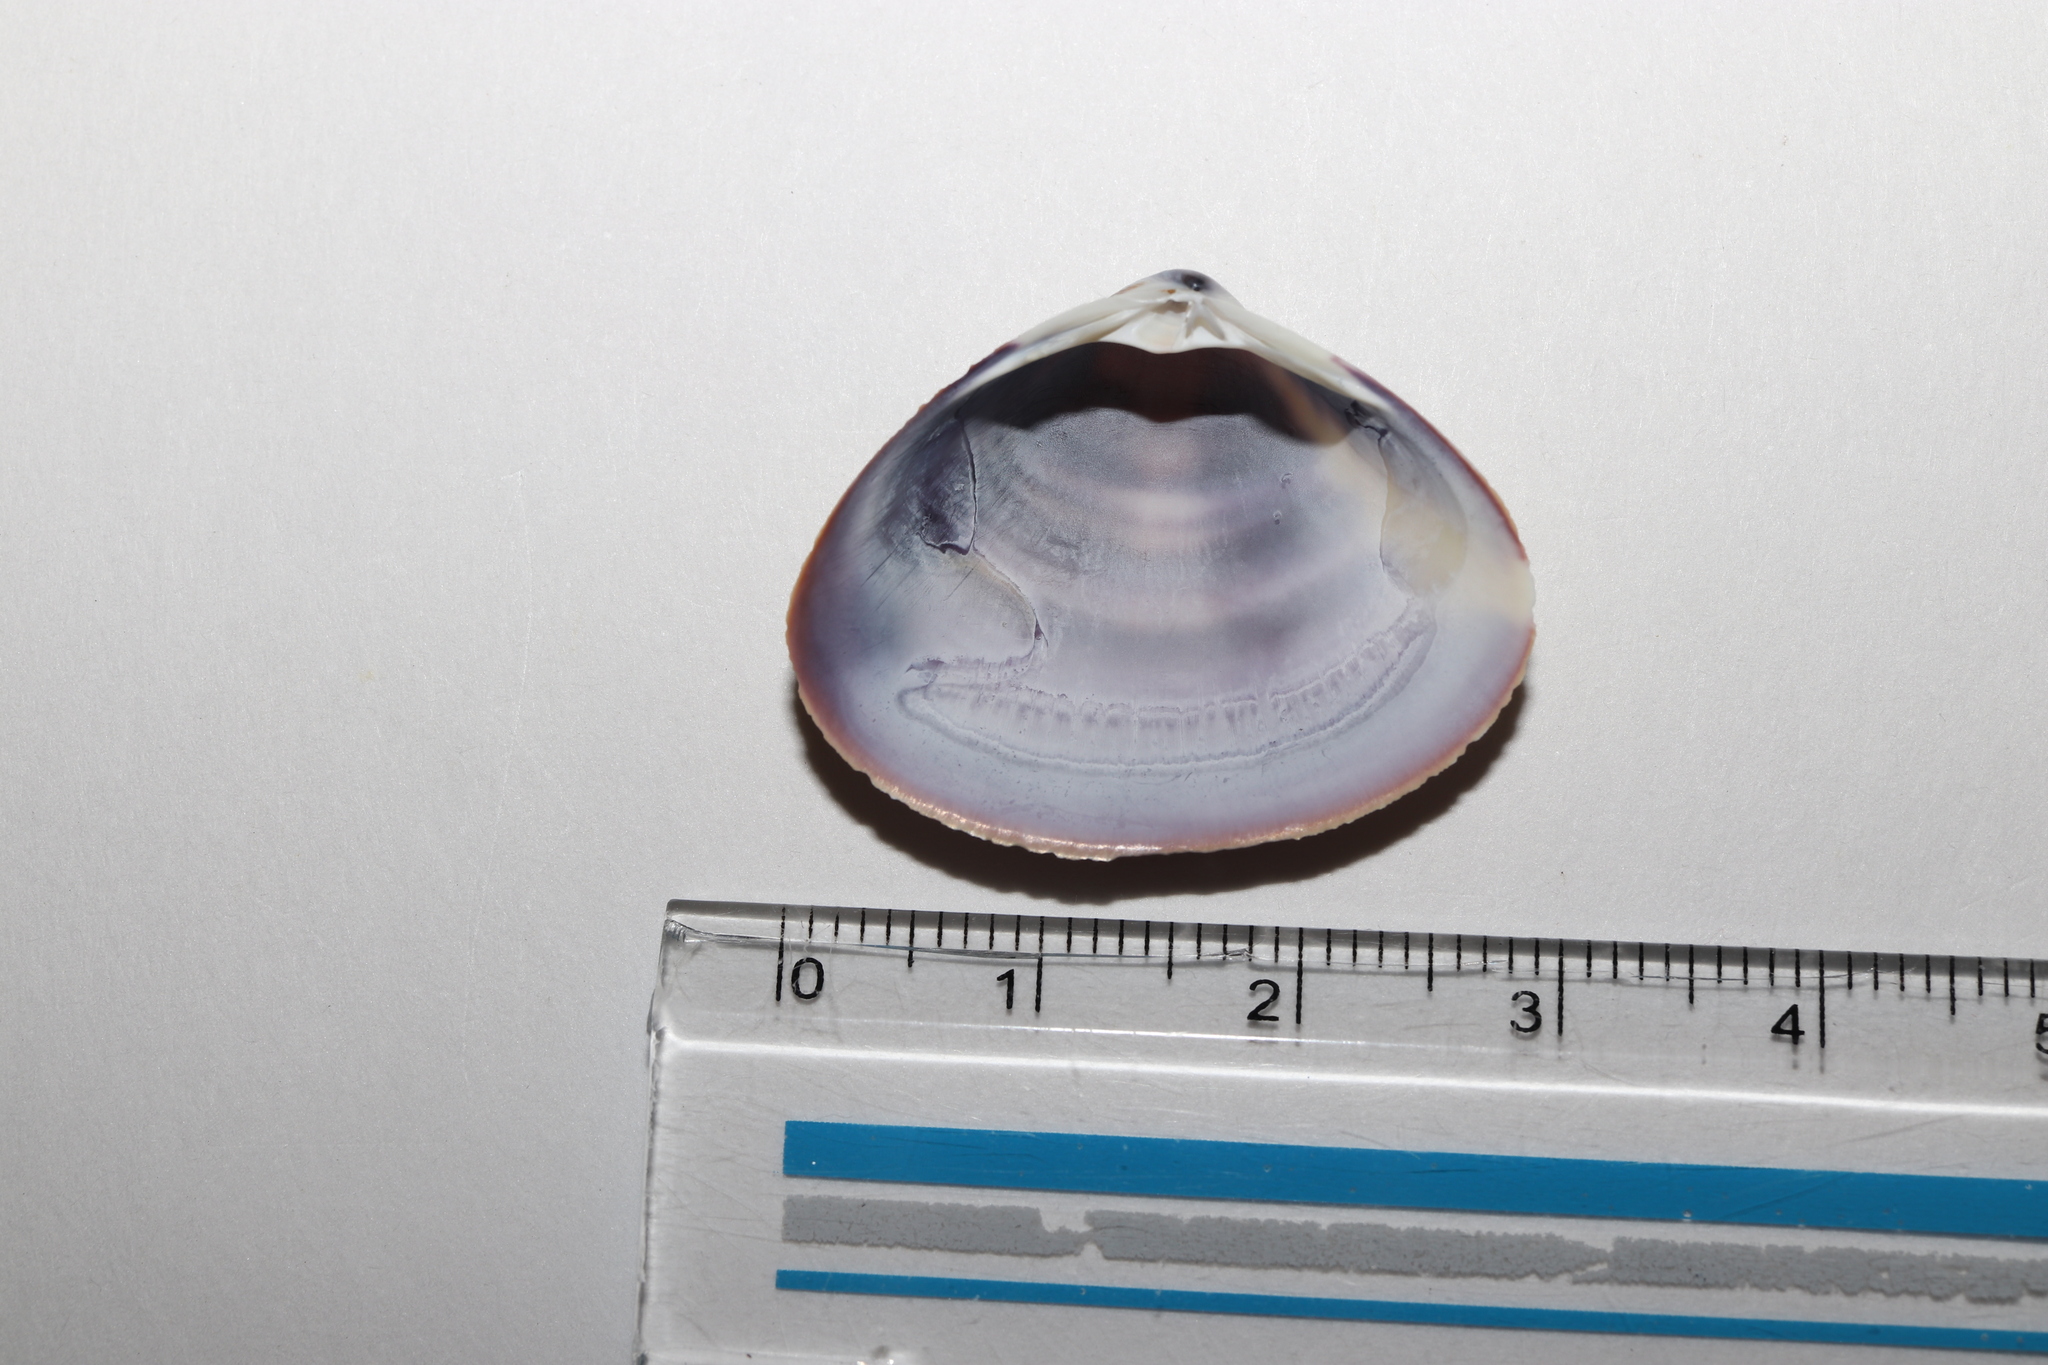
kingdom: Animalia
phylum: Mollusca
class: Bivalvia
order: Venerida
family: Mactridae
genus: Mactra
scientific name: Mactra chinensis
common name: Chinese surf clam
